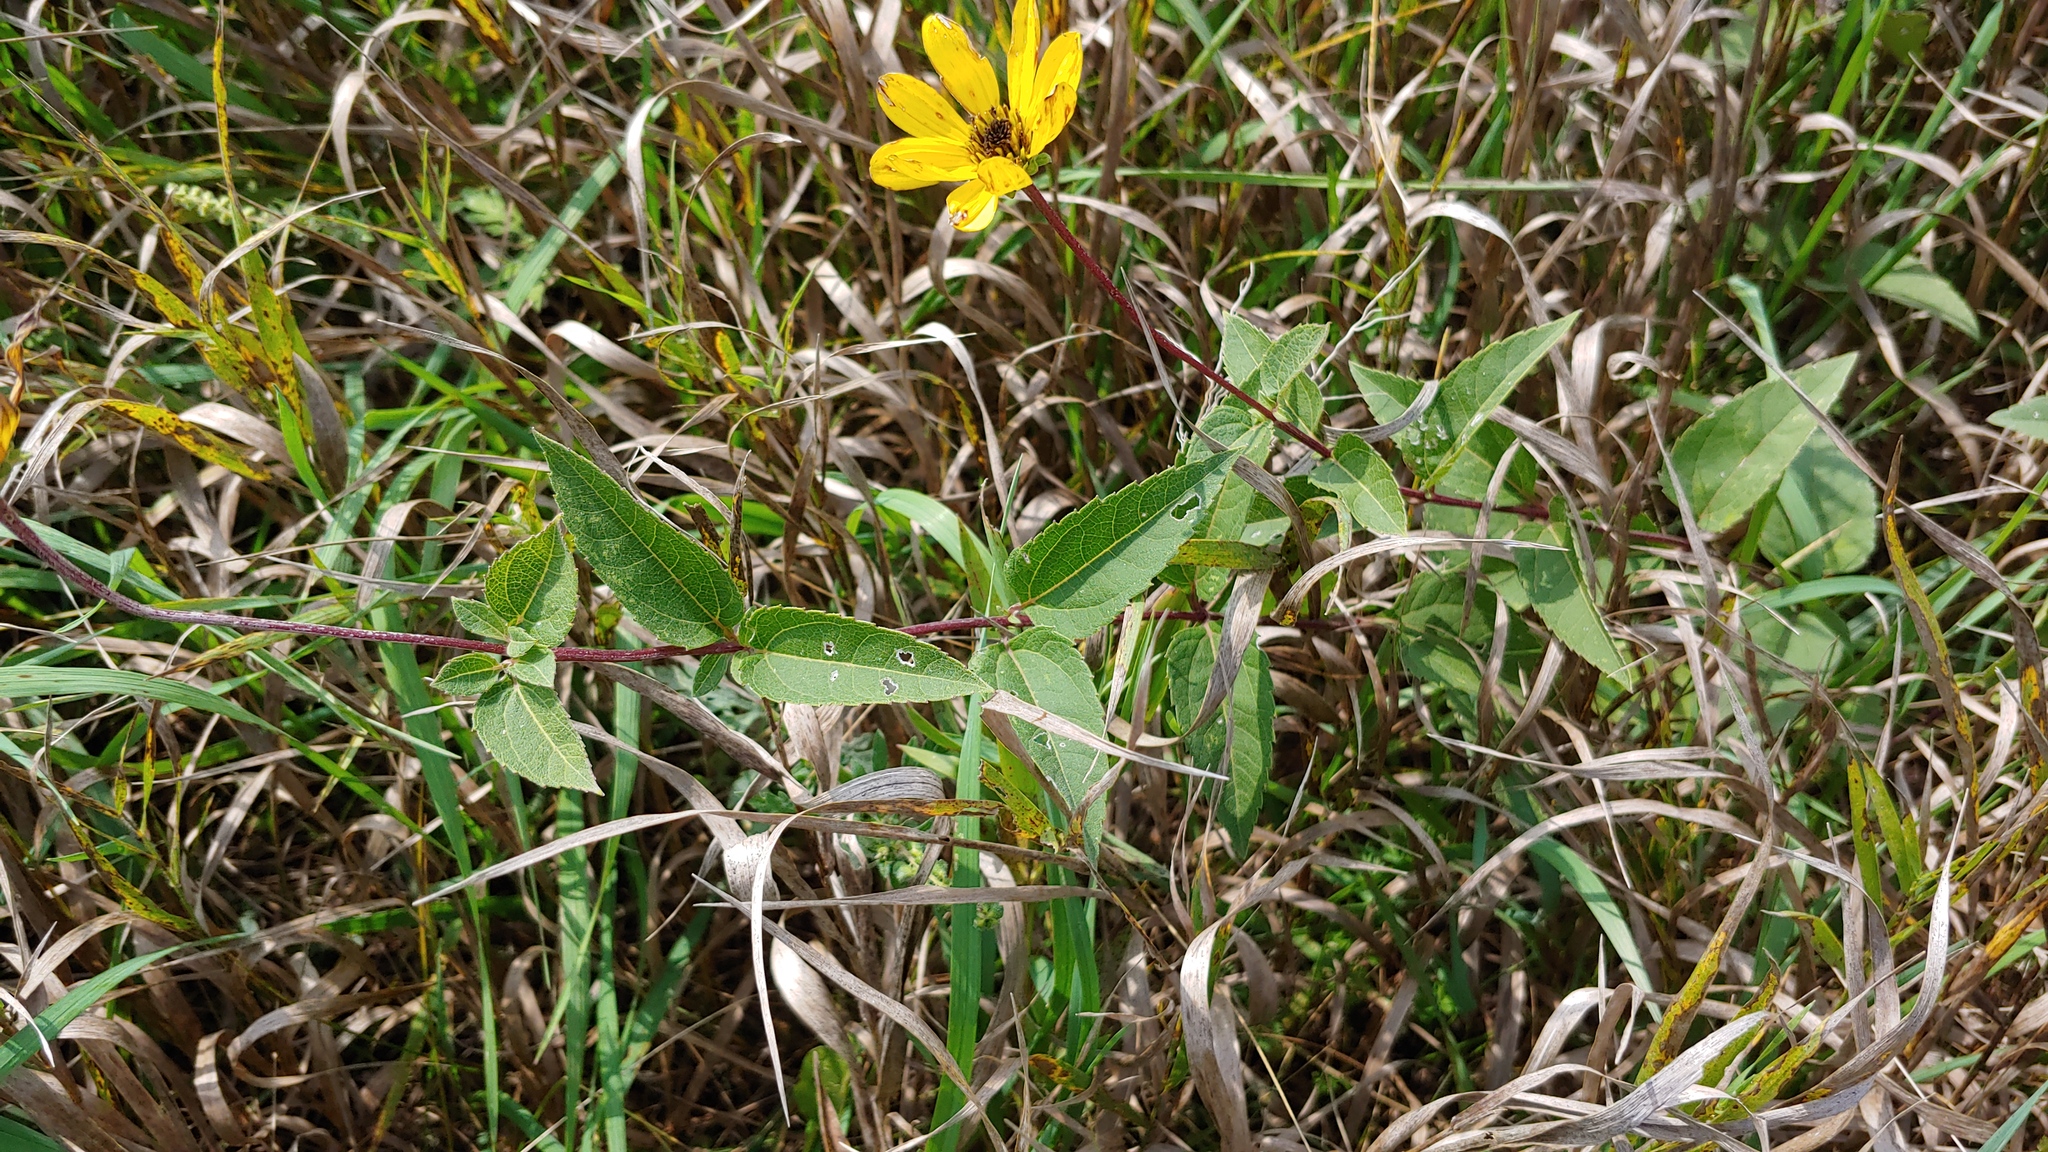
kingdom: Plantae
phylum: Tracheophyta
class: Magnoliopsida
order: Asterales
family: Asteraceae
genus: Heliopsis
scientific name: Heliopsis helianthoides
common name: False sunflower
